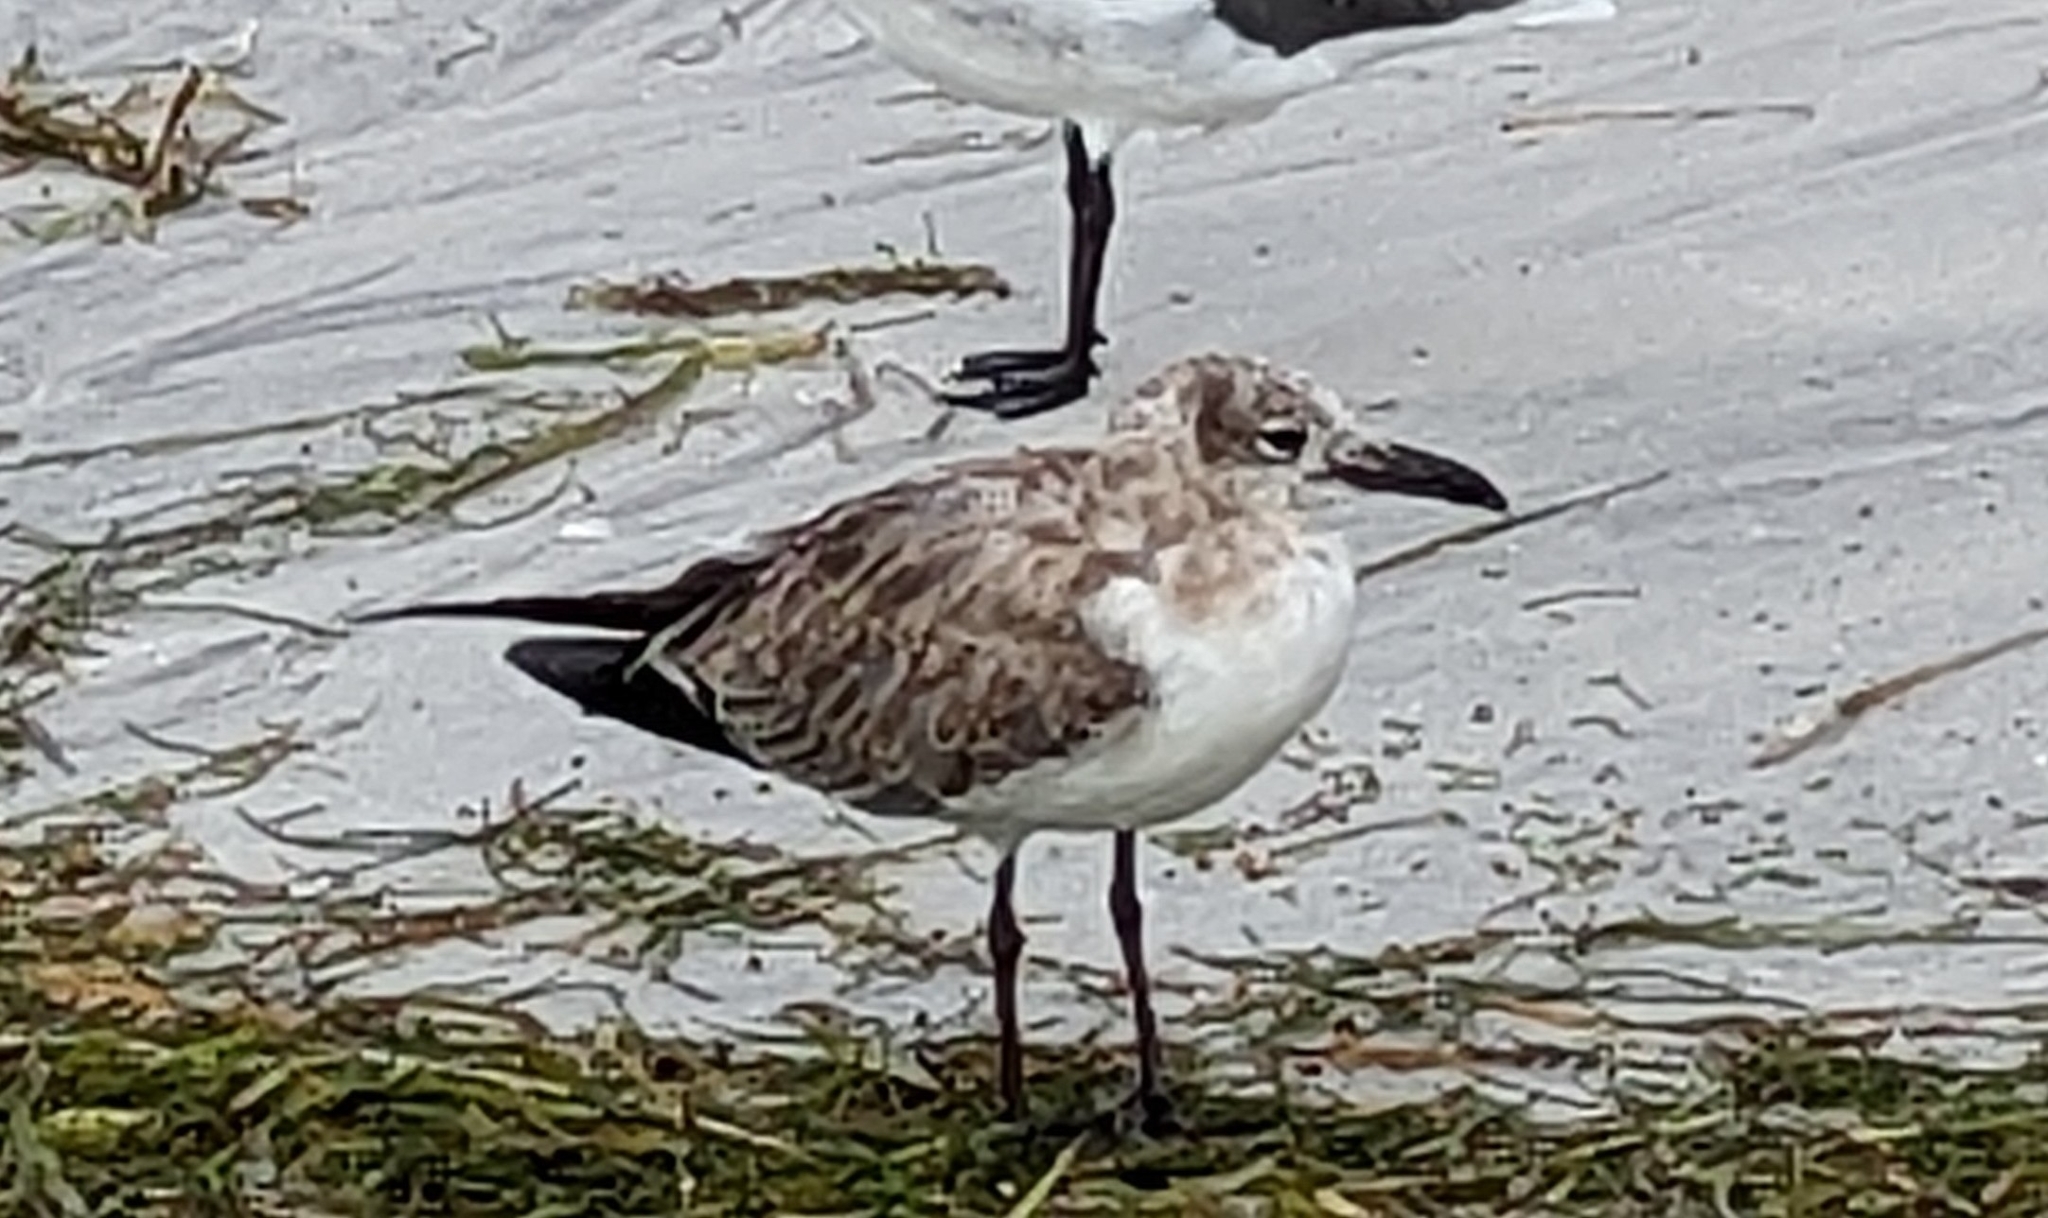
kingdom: Animalia
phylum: Chordata
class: Aves
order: Charadriiformes
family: Laridae
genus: Leucophaeus
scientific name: Leucophaeus atricilla
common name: Laughing gull
